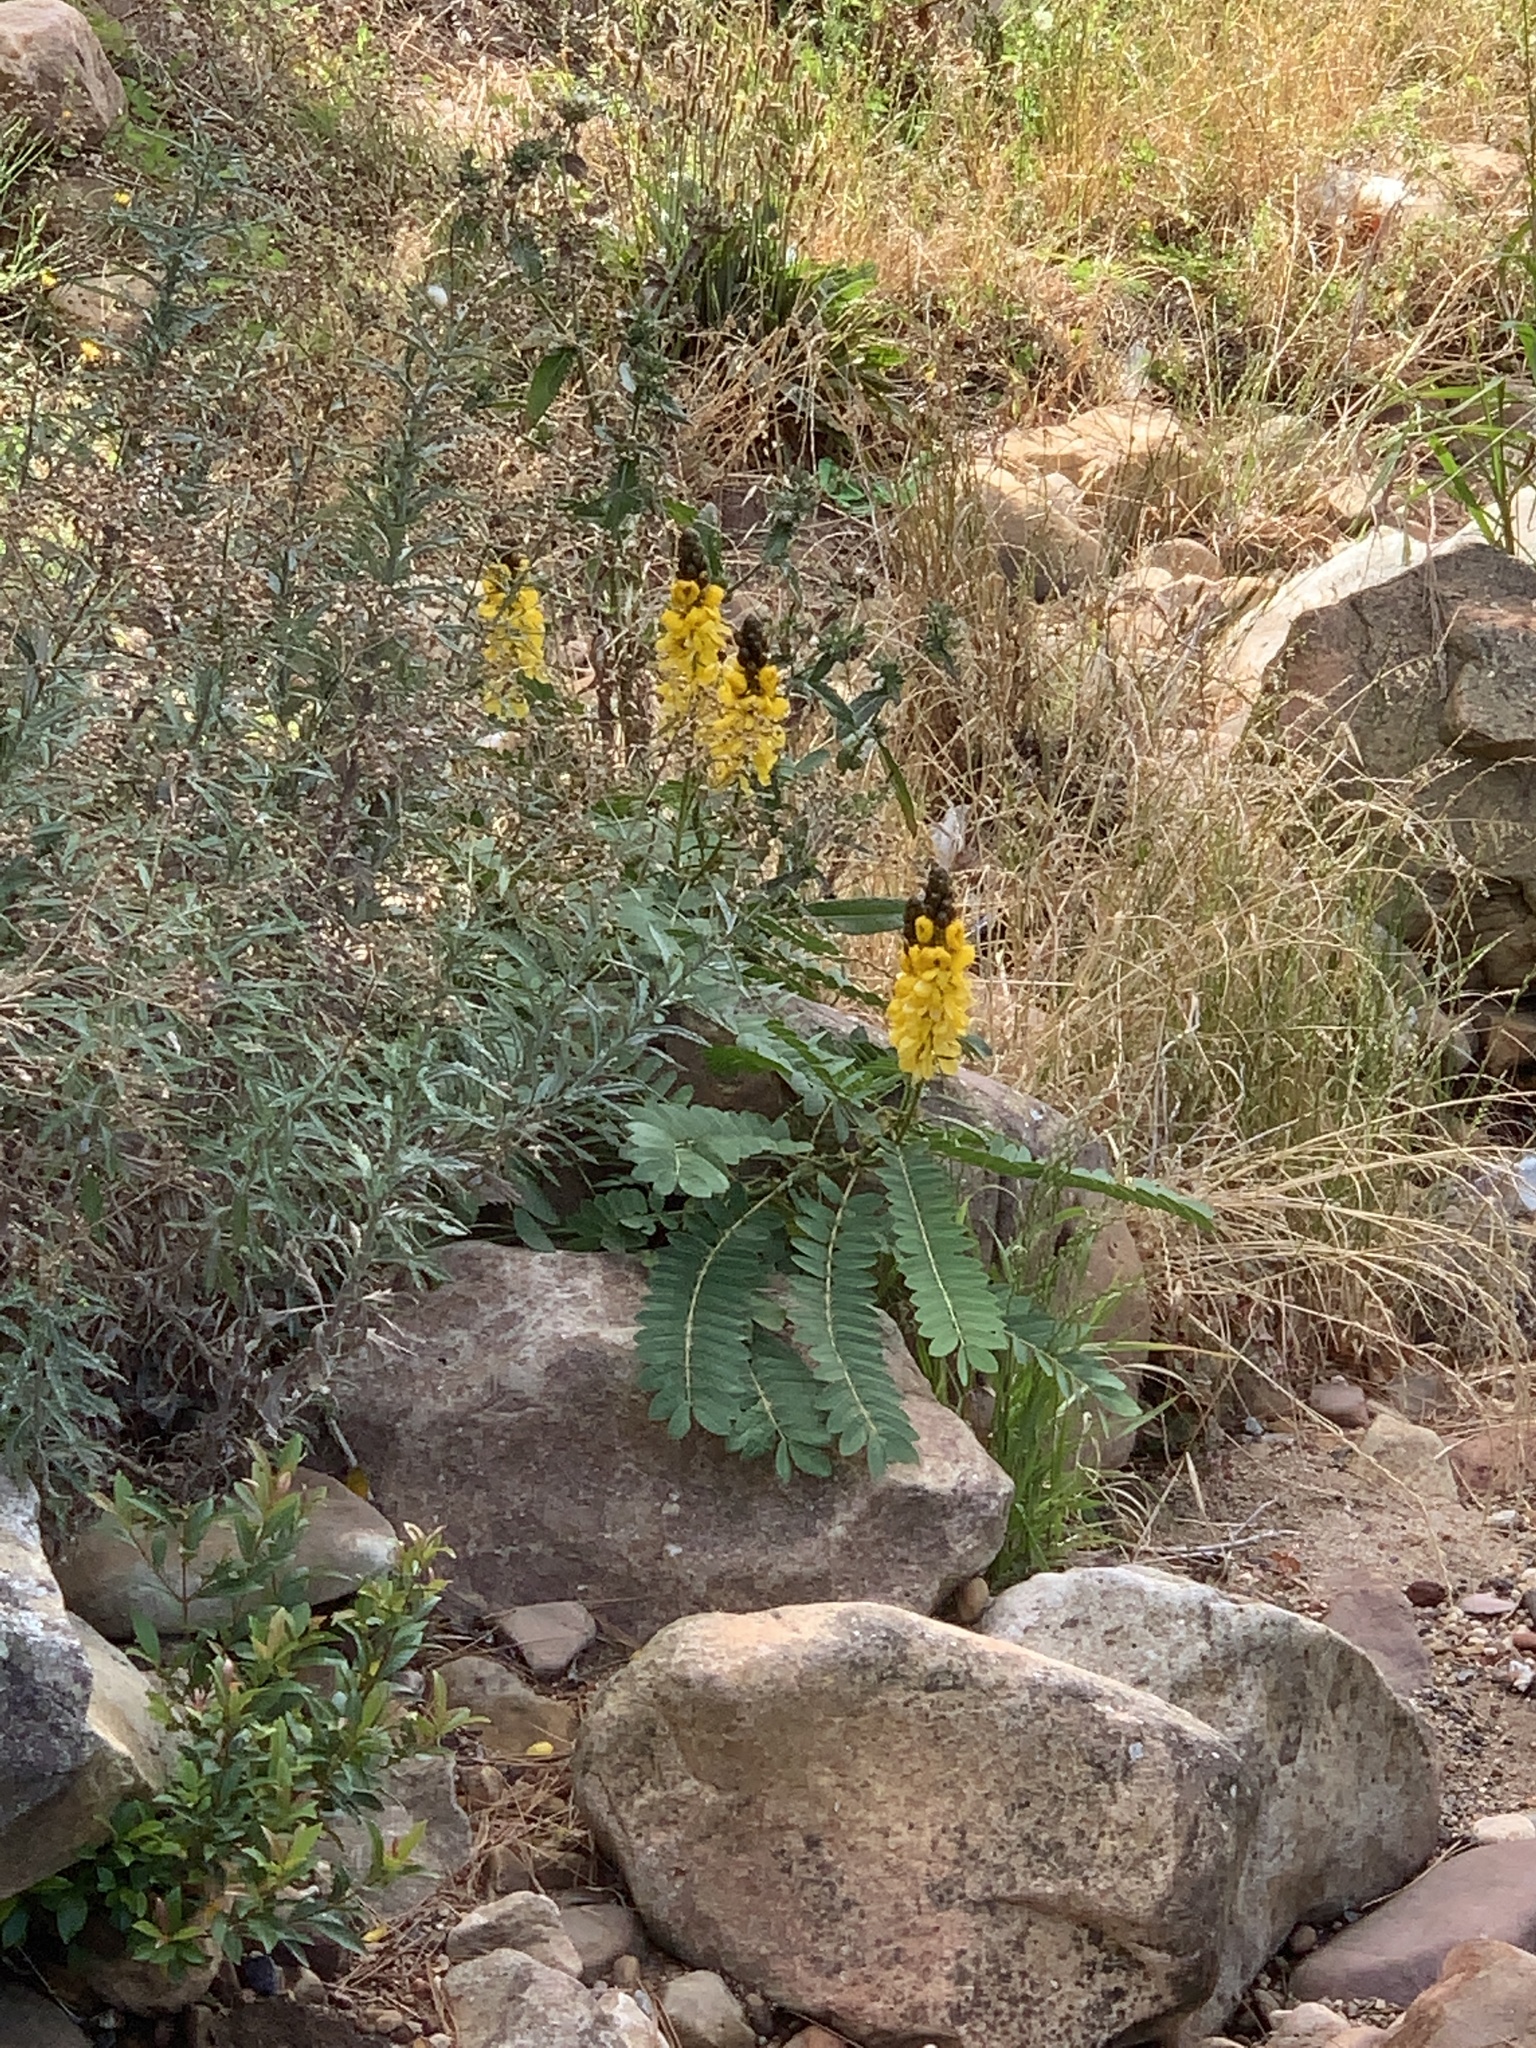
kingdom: Plantae
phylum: Tracheophyta
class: Magnoliopsida
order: Fabales
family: Fabaceae
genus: Senna
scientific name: Senna didymobotrya
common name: African senna
